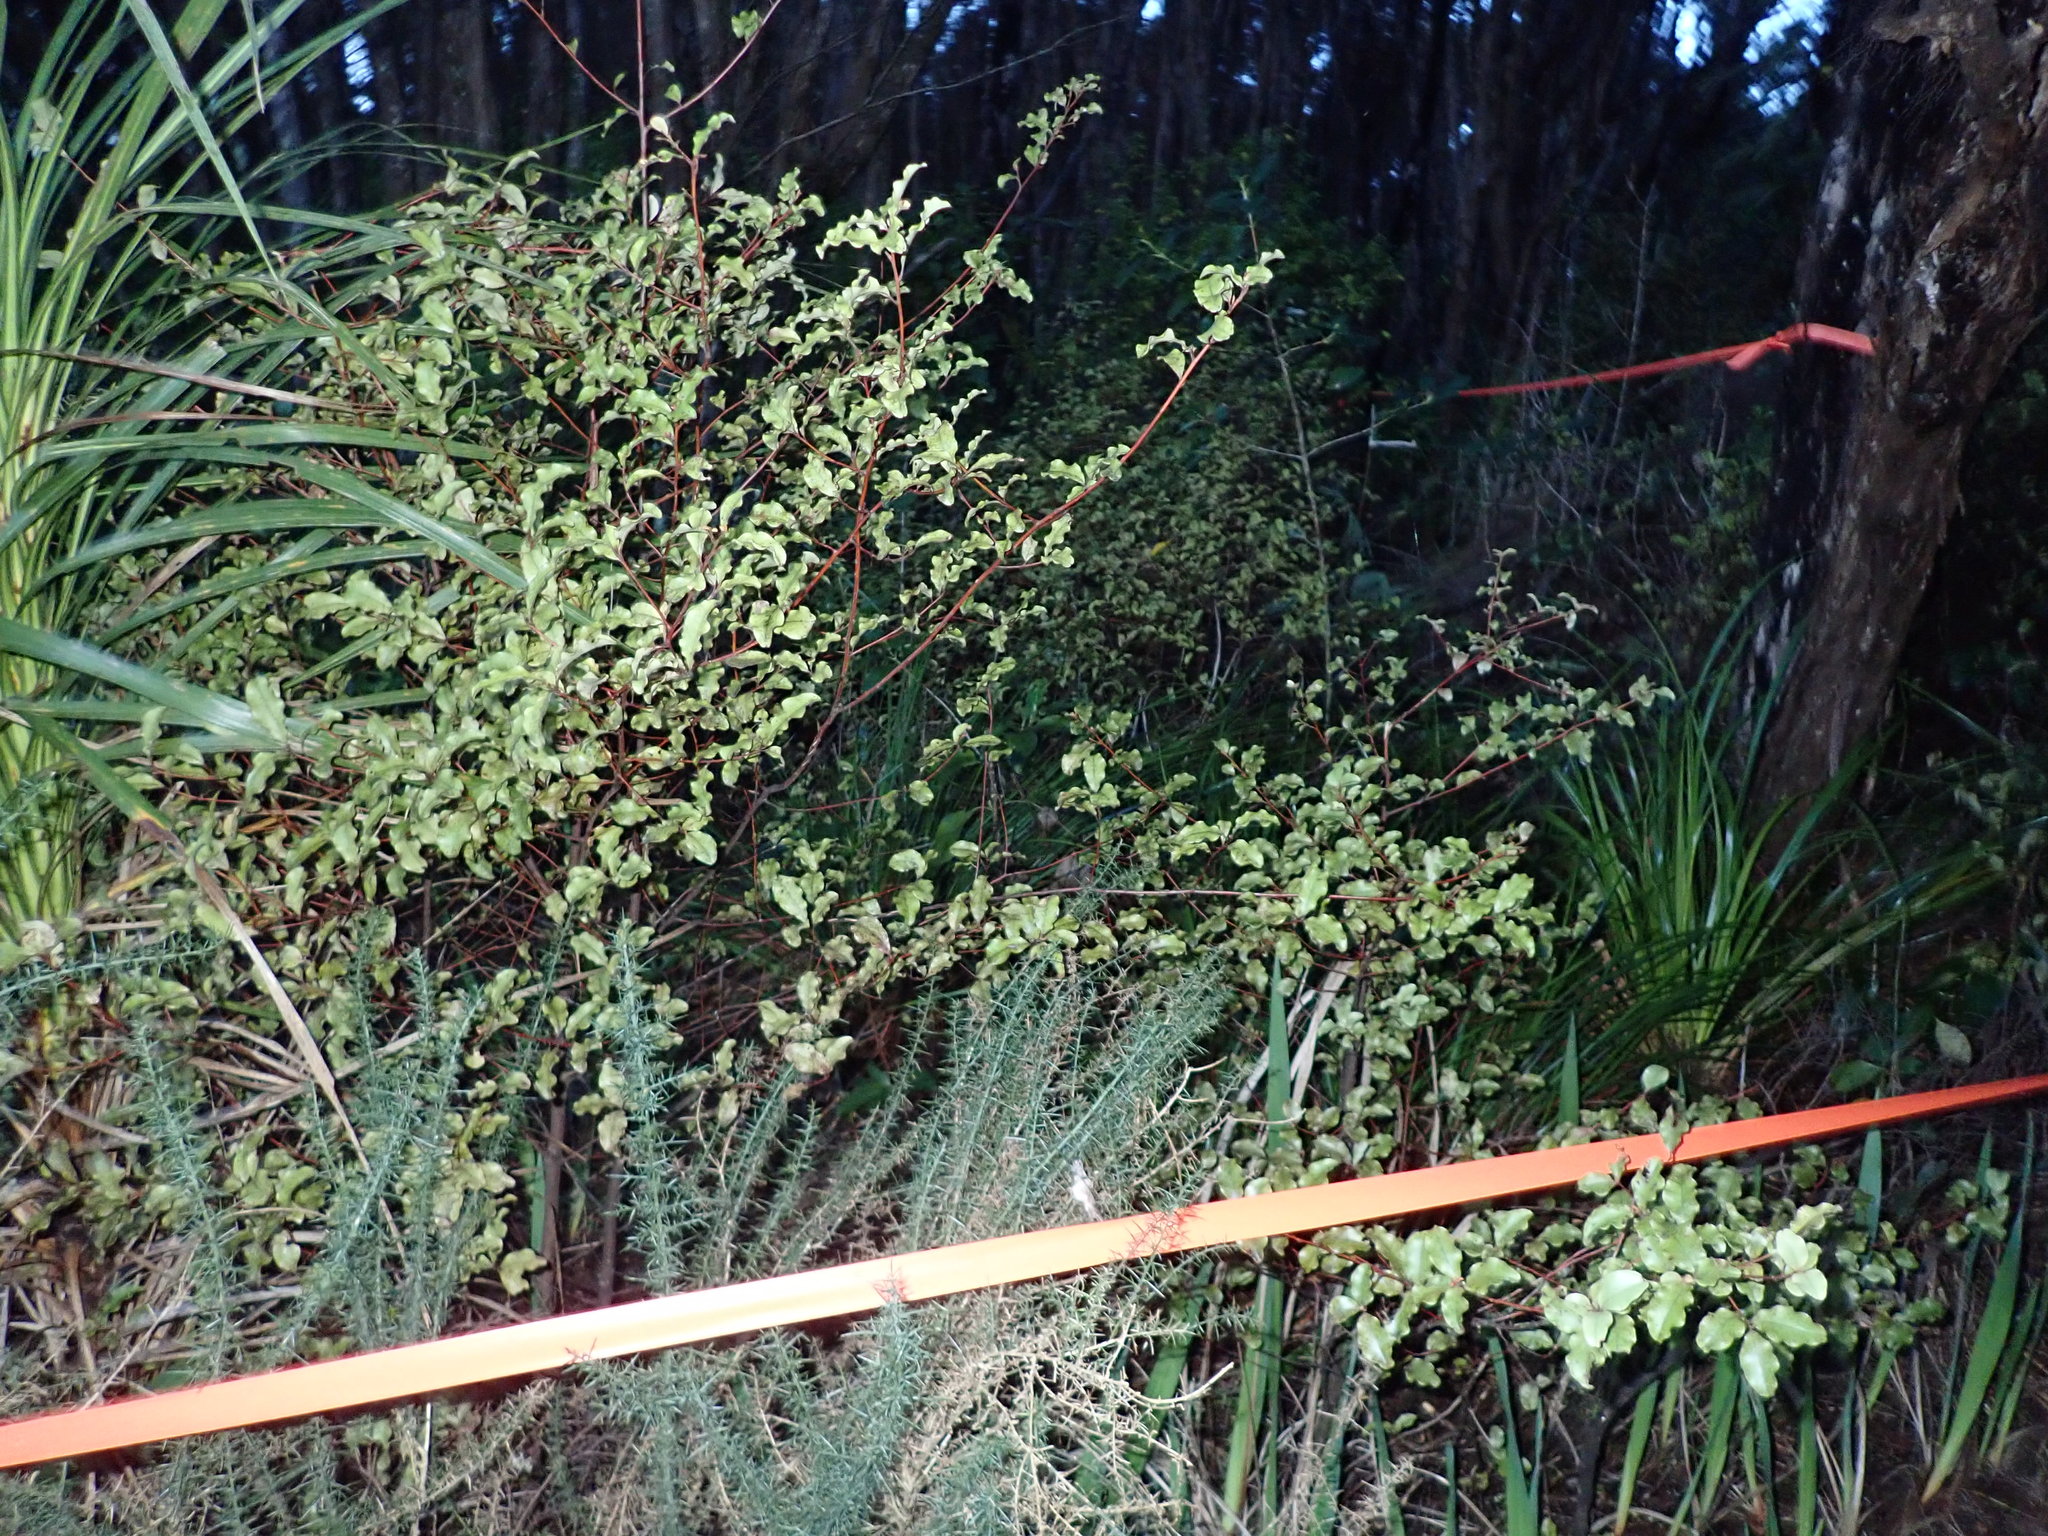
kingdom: Plantae
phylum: Tracheophyta
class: Magnoliopsida
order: Ericales
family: Primulaceae
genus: Myrsine
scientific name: Myrsine australis
